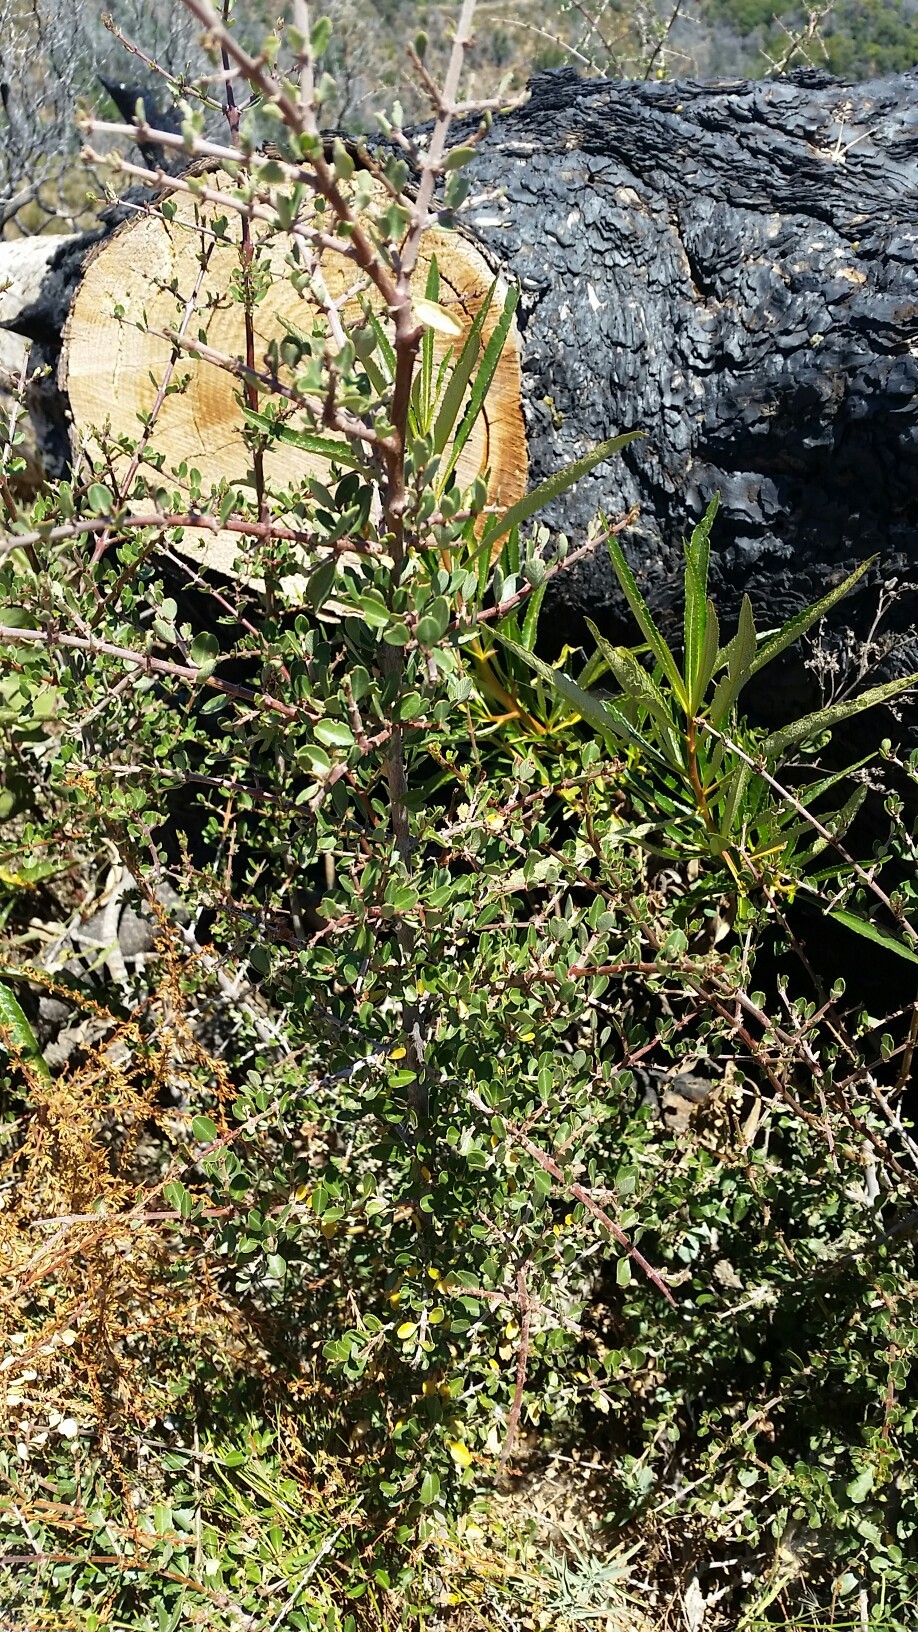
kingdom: Plantae
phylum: Tracheophyta
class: Magnoliopsida
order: Rosales
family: Rhamnaceae
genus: Ceanothus
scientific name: Ceanothus cuneatus
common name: Cuneate ceanothus
